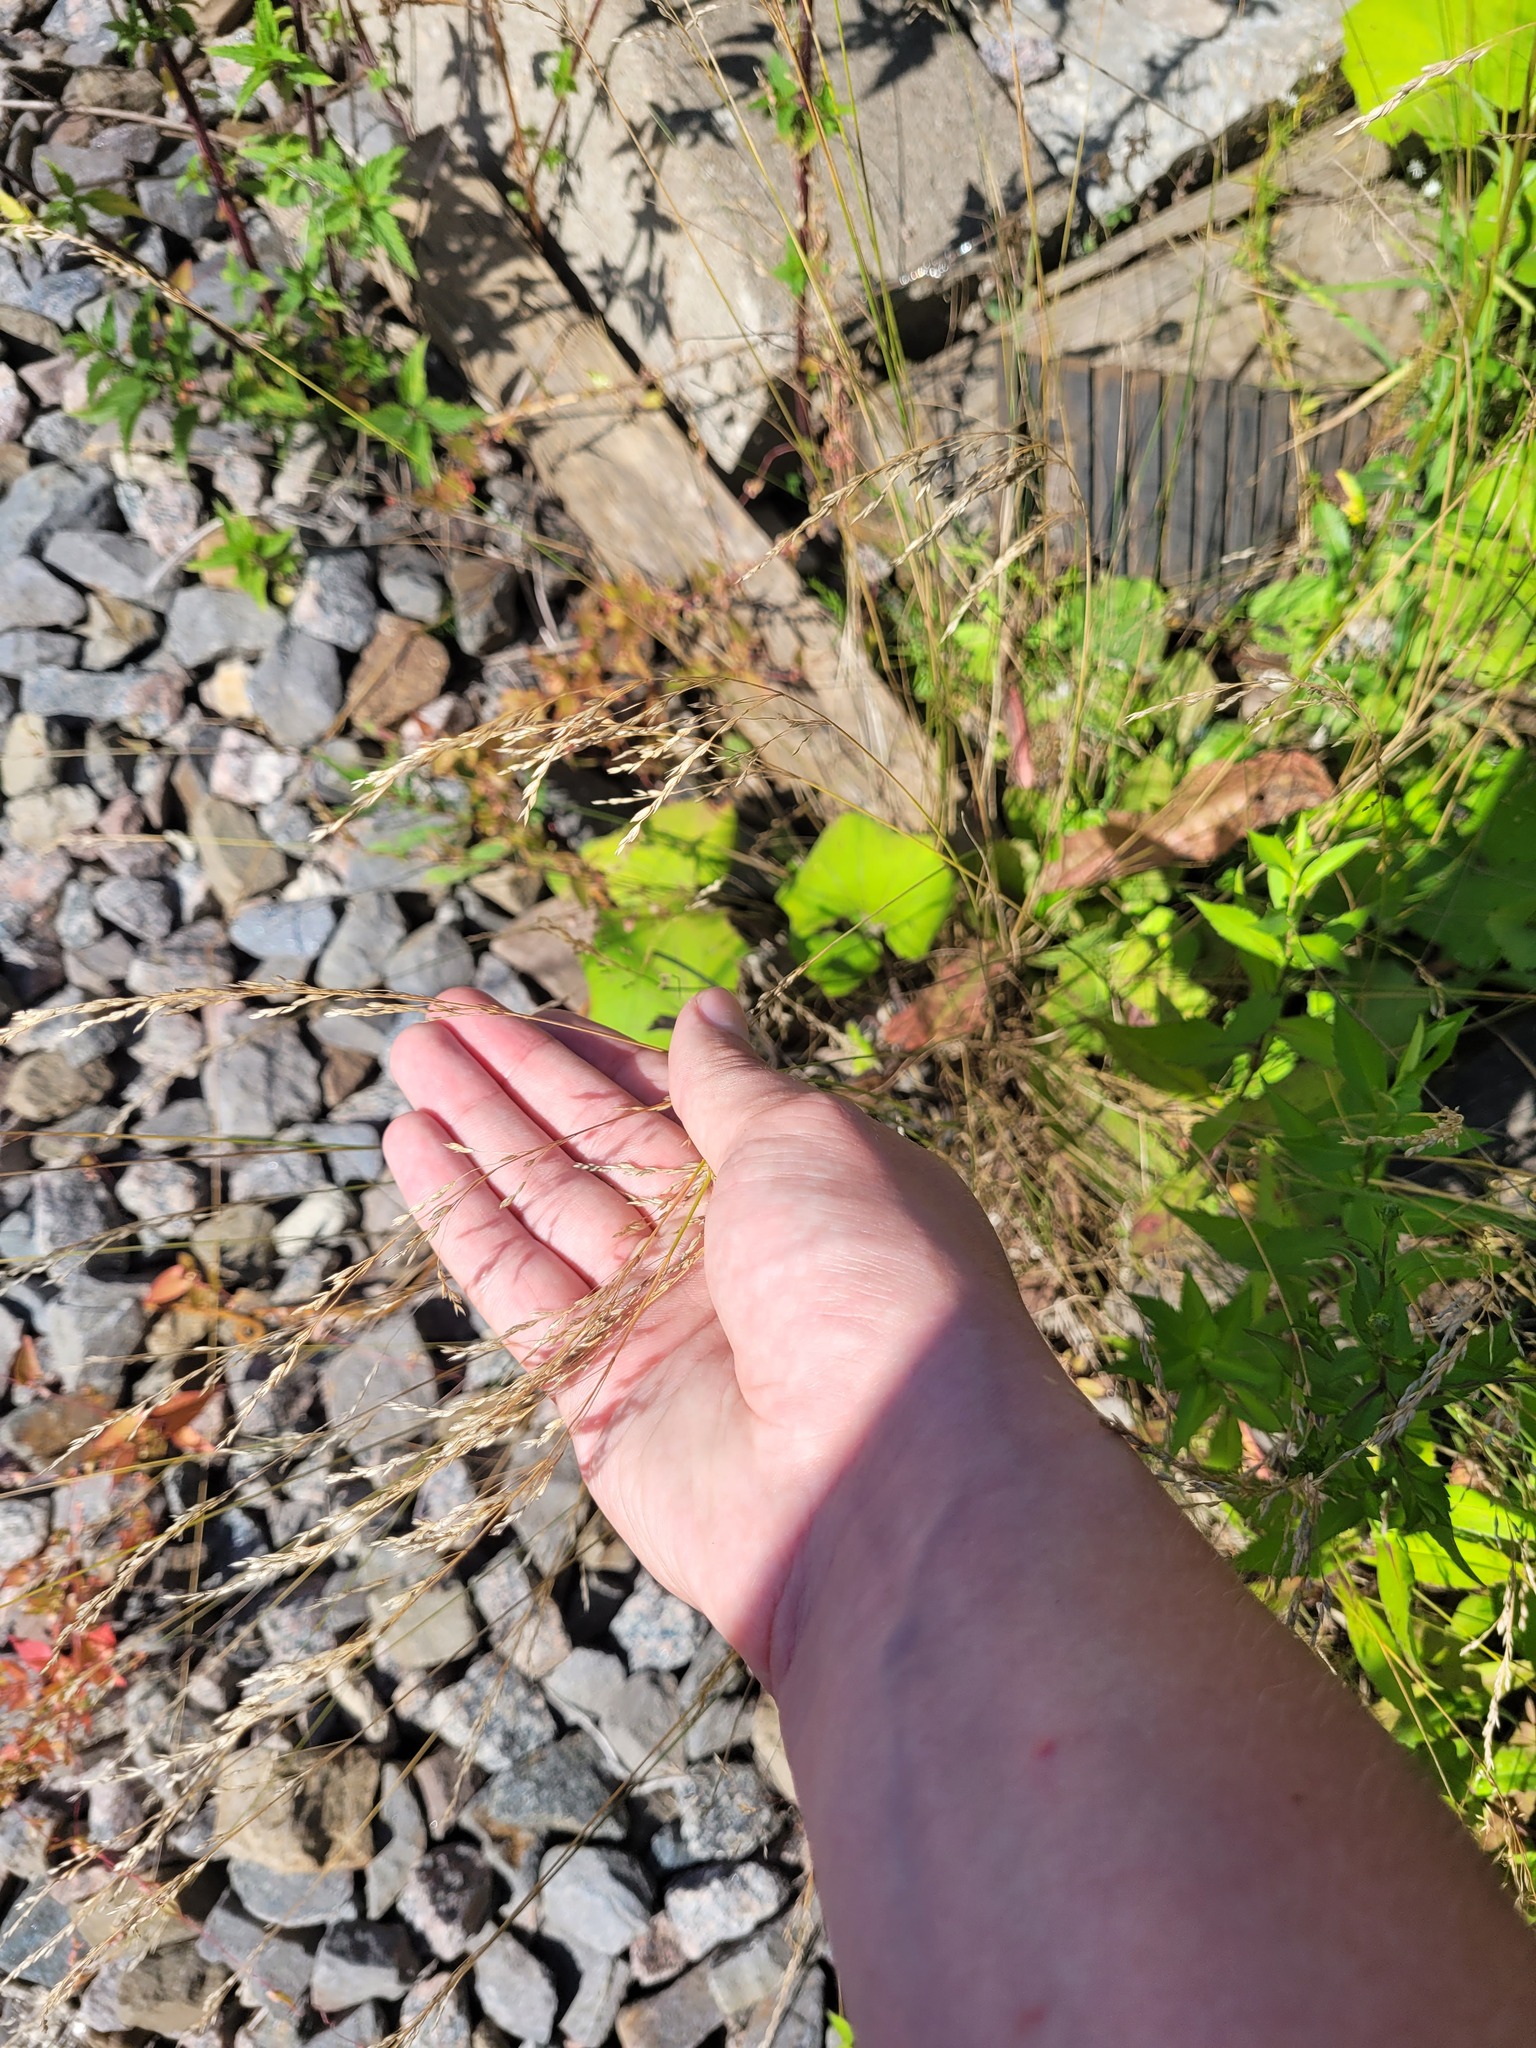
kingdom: Plantae
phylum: Tracheophyta
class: Liliopsida
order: Poales
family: Poaceae
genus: Poa
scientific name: Poa palustris
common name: Swamp meadow-grass
